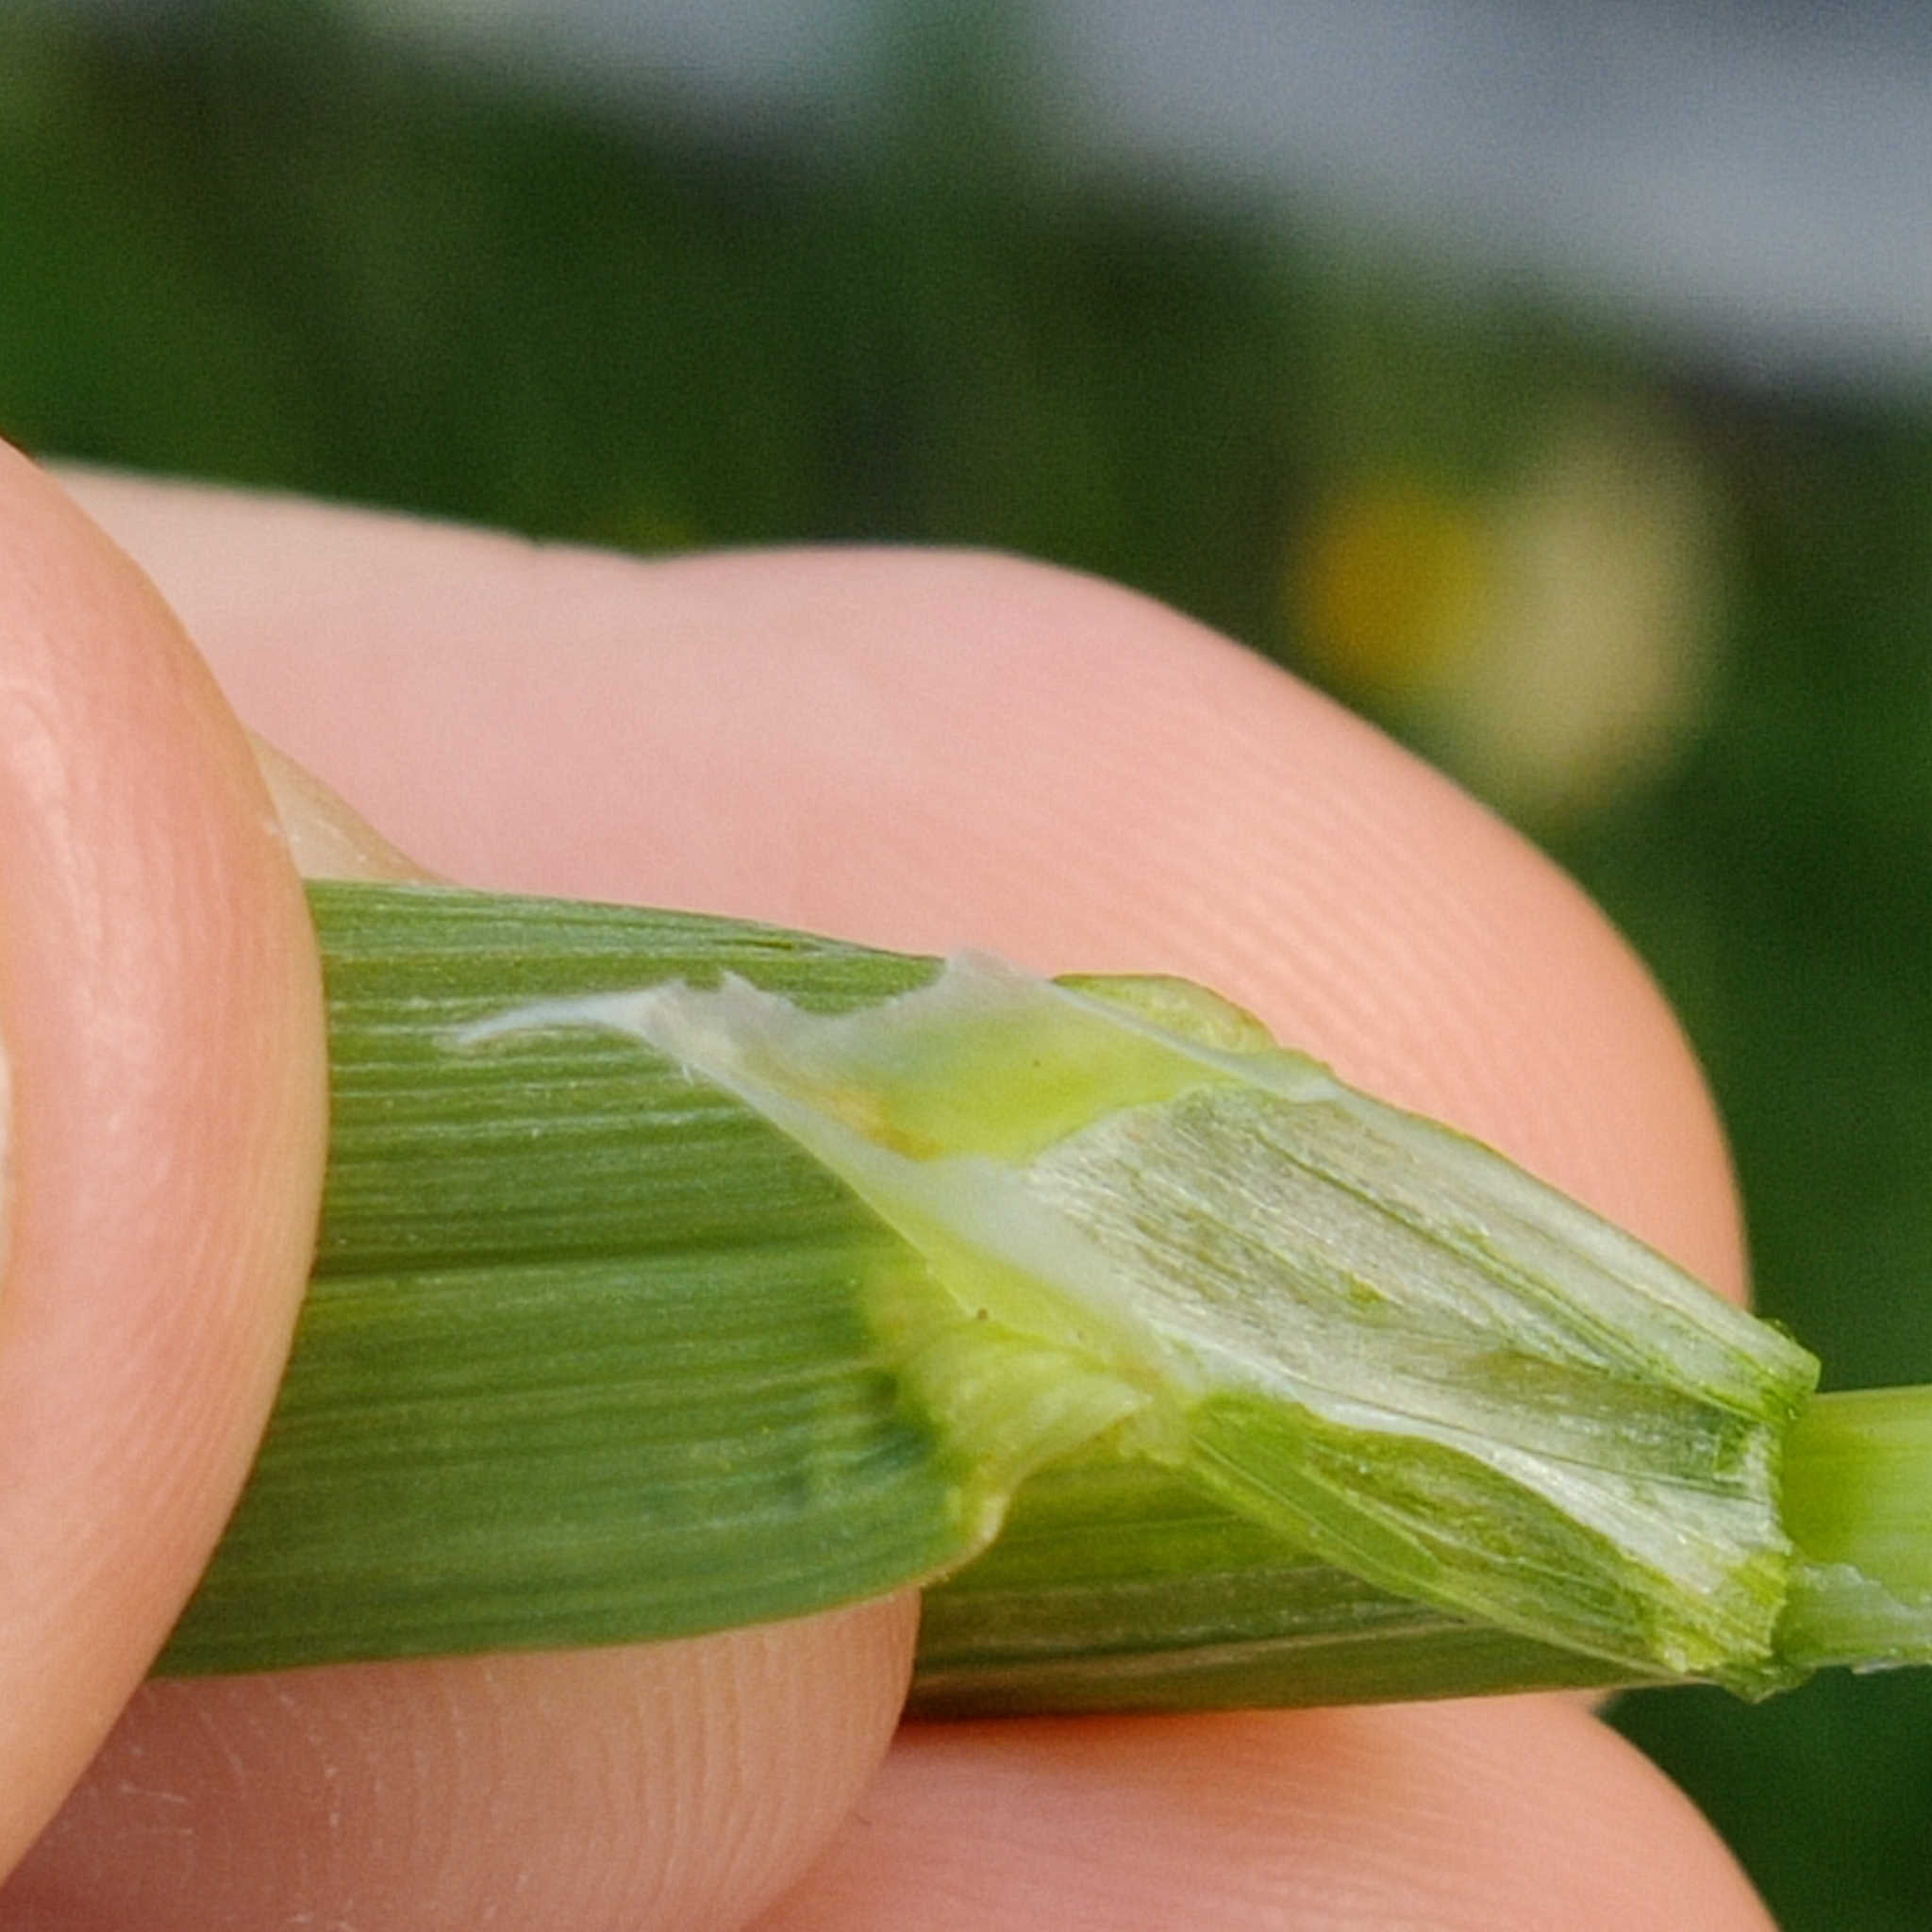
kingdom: Plantae
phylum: Tracheophyta
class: Liliopsida
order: Poales
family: Poaceae
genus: Poa
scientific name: Poa trivialis
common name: Rough bluegrass
